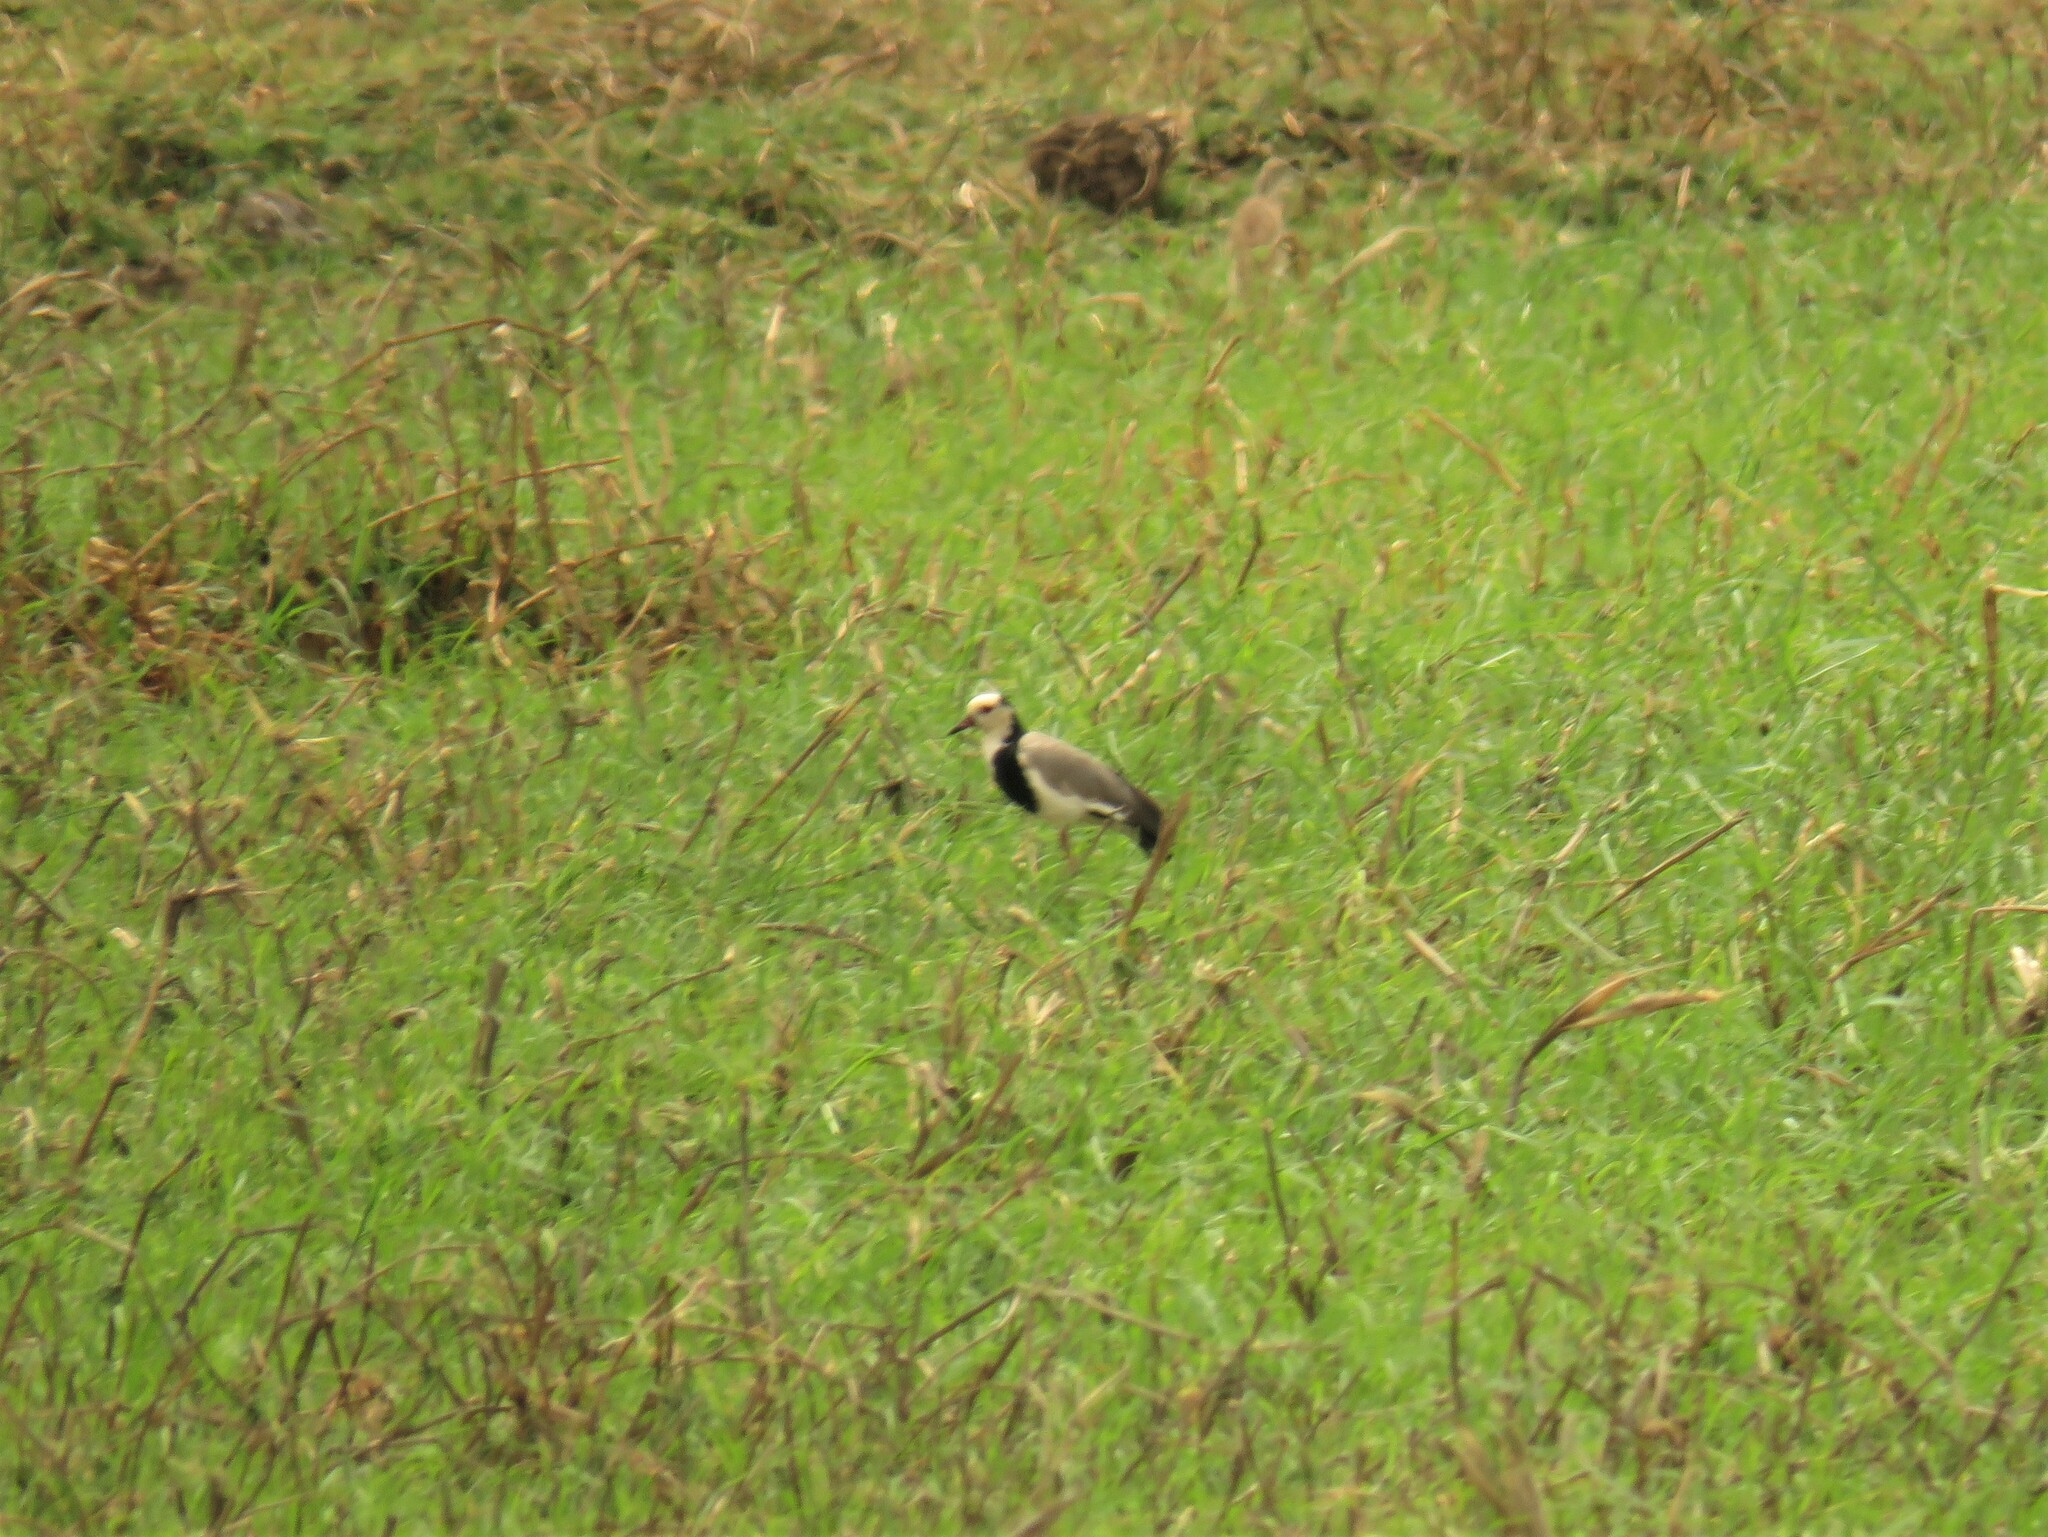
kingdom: Animalia
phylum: Chordata
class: Aves
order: Charadriiformes
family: Charadriidae
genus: Vanellus
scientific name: Vanellus crassirostris
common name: Long-toed lapwing
